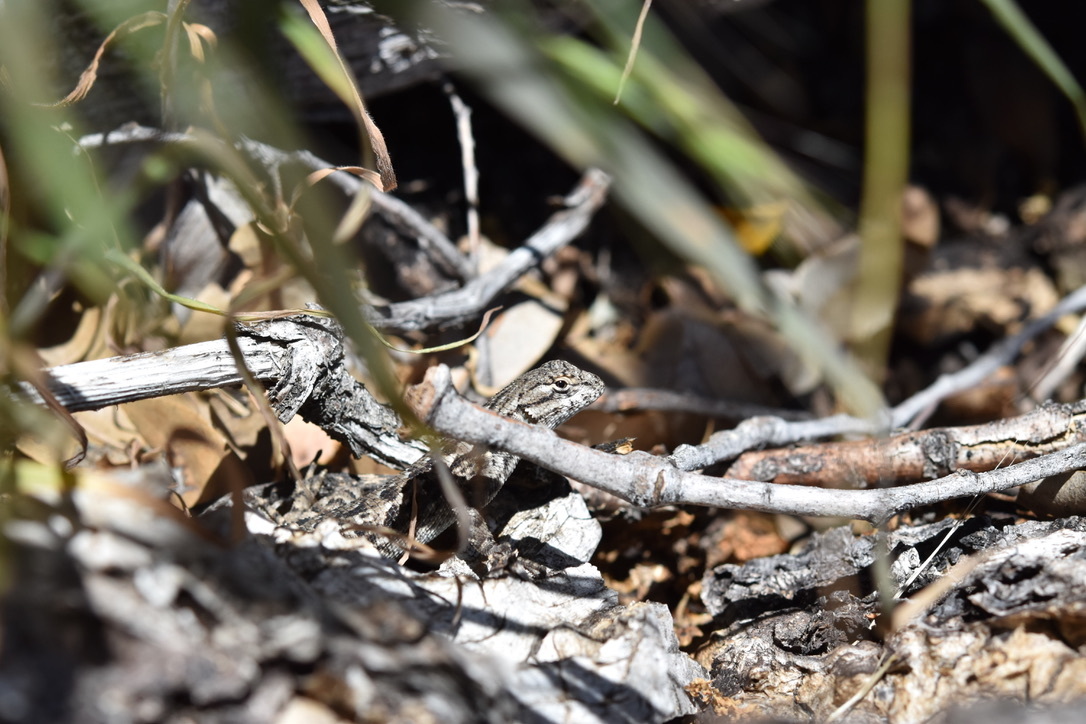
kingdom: Animalia
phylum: Chordata
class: Squamata
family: Phrynosomatidae
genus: Sceloporus
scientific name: Sceloporus occidentalis
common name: Western fence lizard
